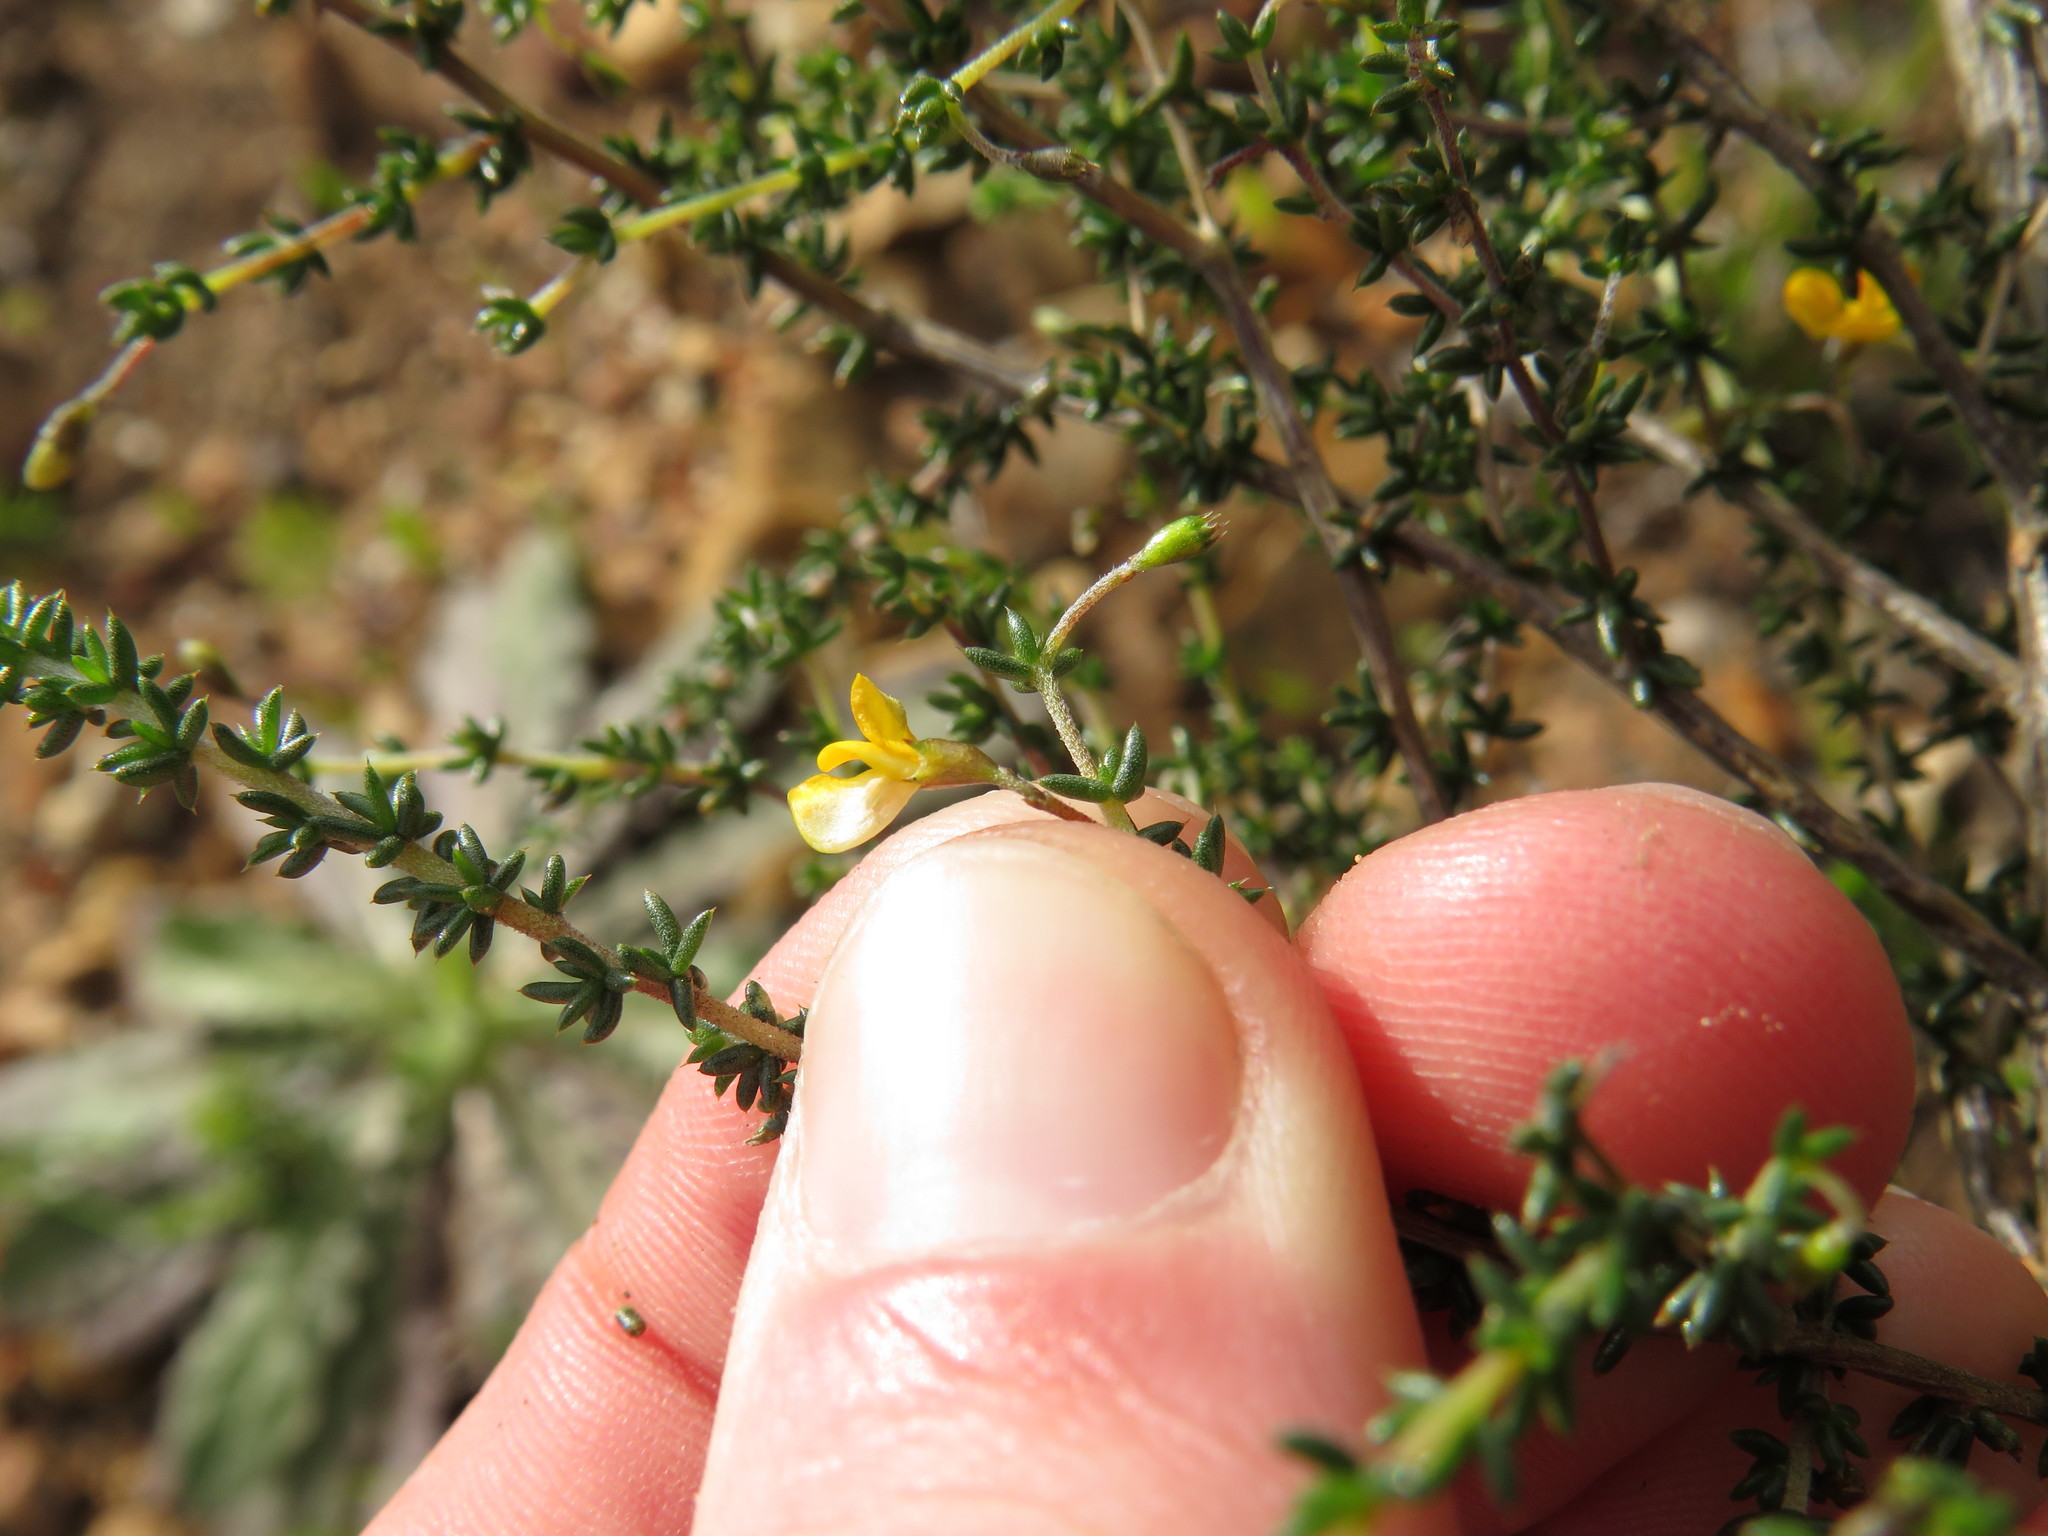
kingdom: Plantae
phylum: Tracheophyta
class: Magnoliopsida
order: Fabales
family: Fabaceae
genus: Aspalathus
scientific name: Aspalathus divaricata
